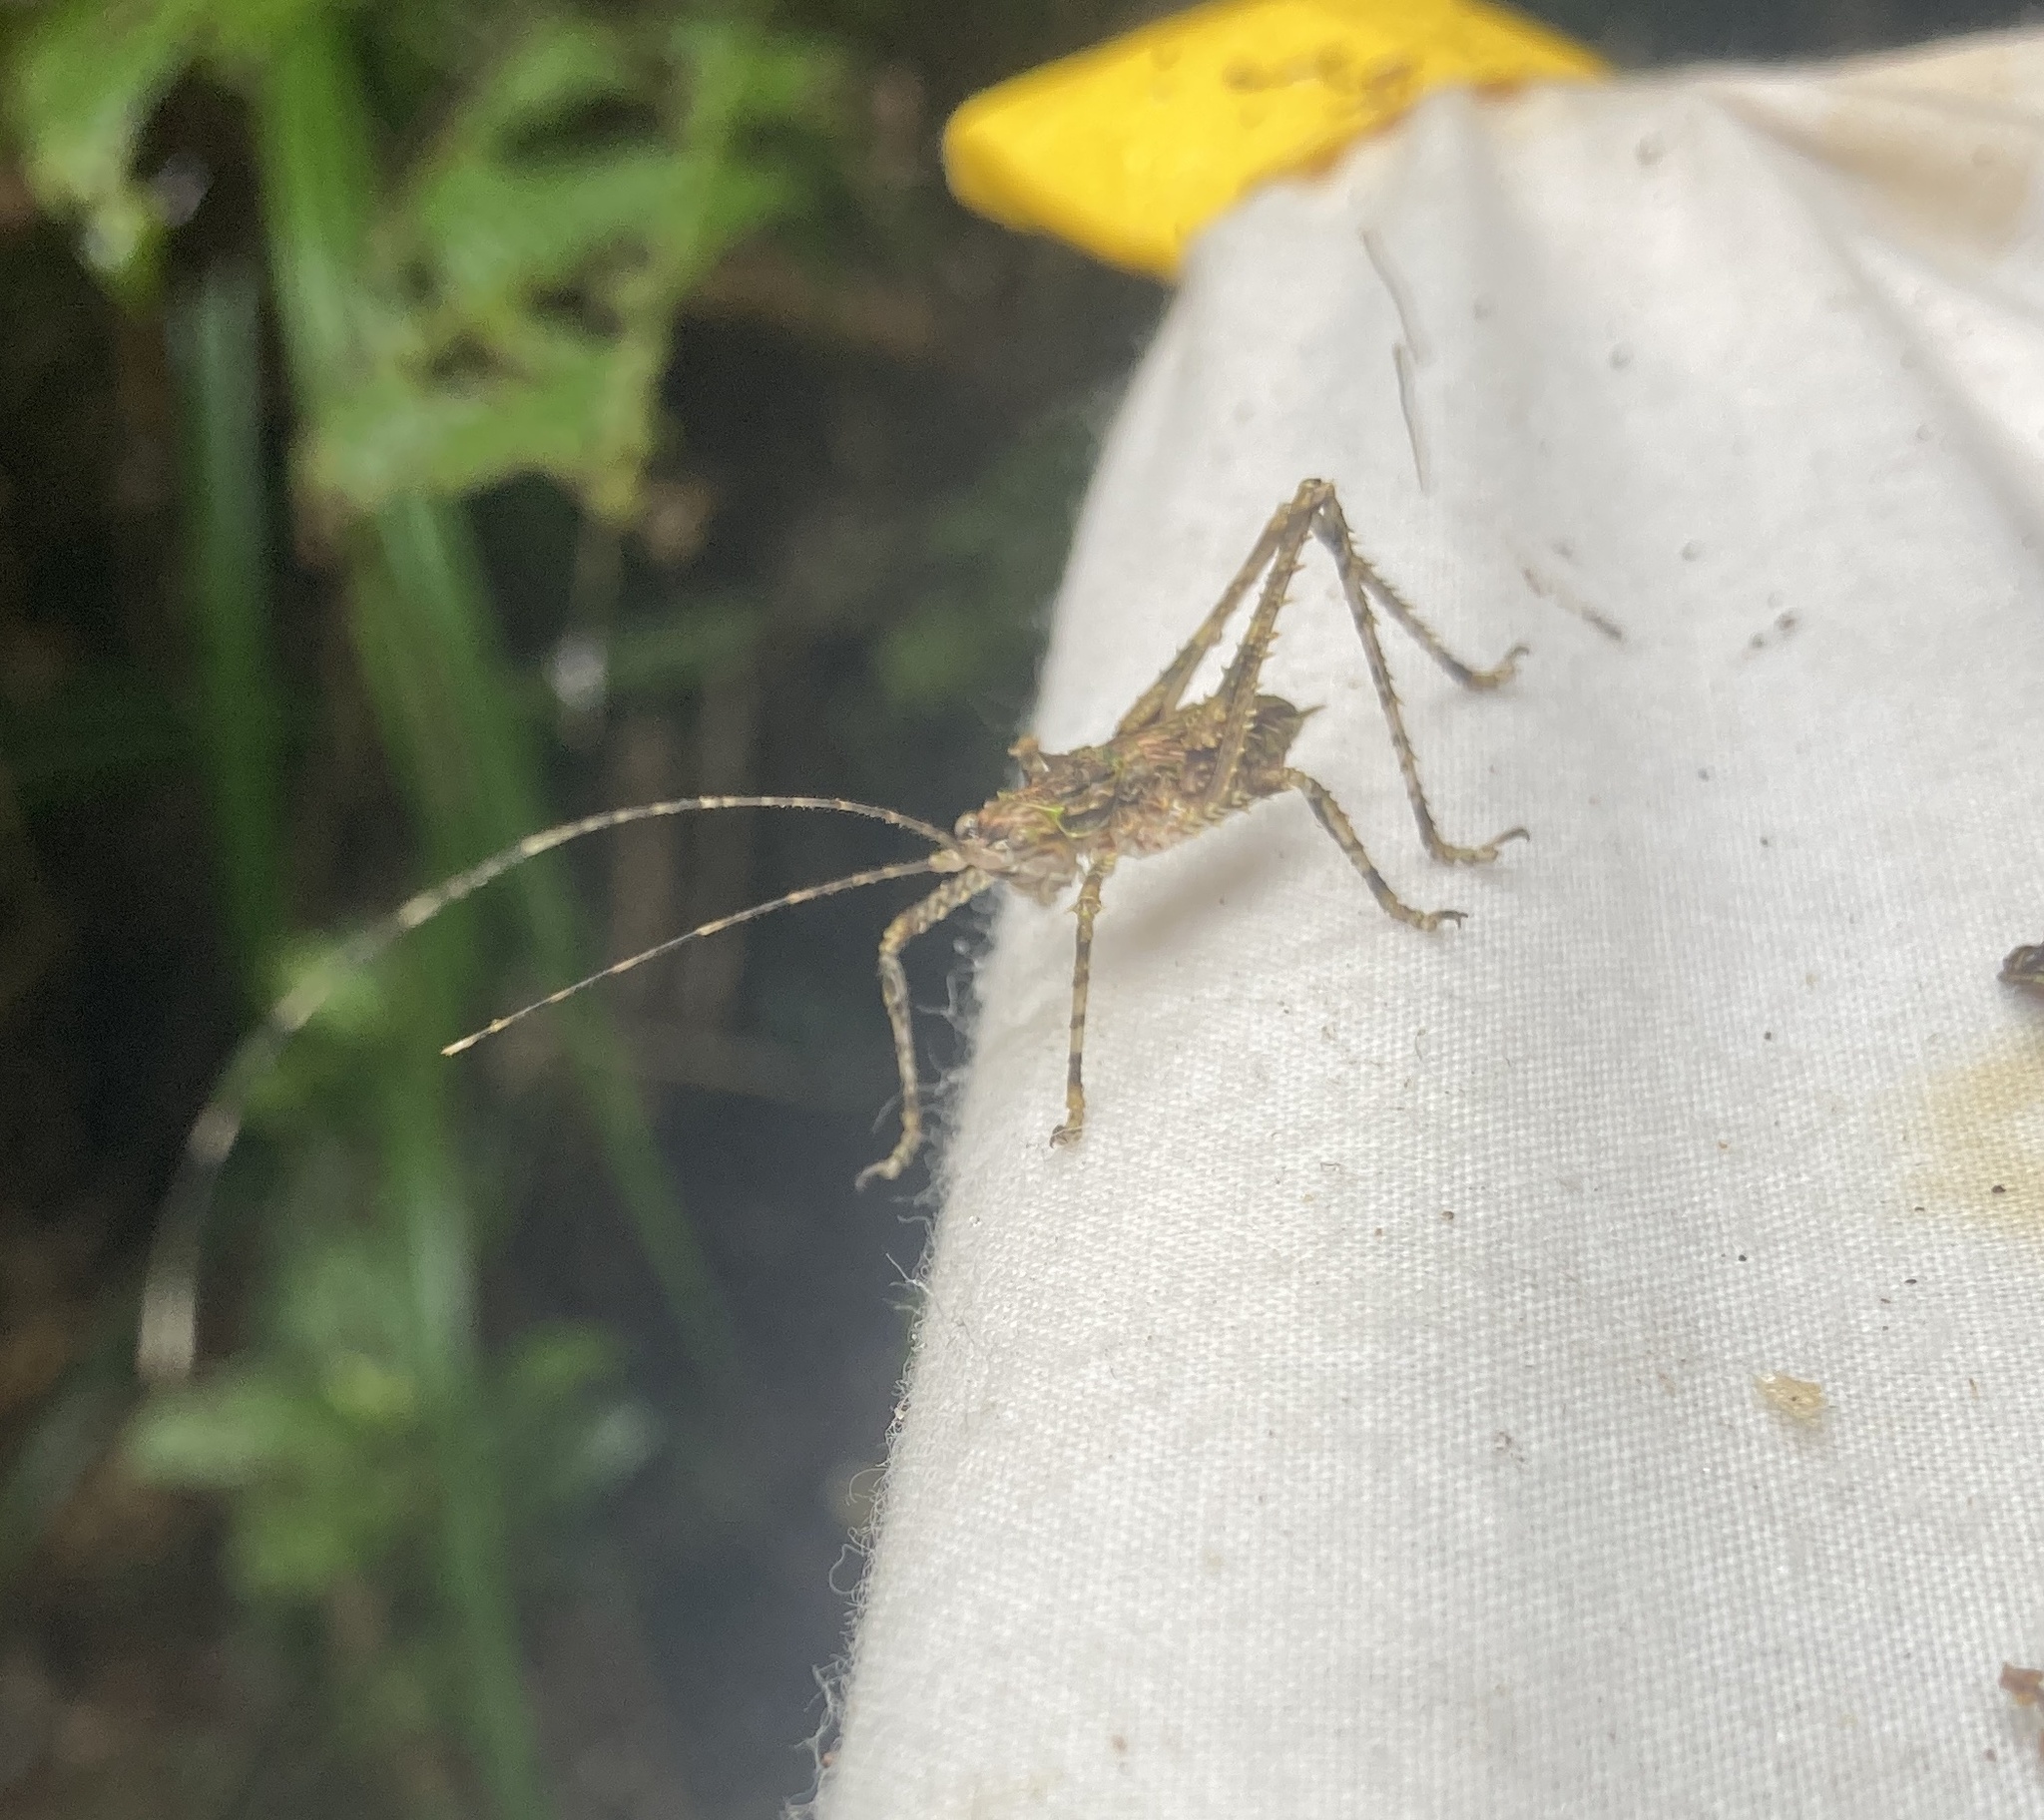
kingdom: Animalia
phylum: Arthropoda
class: Insecta
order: Orthoptera
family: Tettigoniidae
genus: Phricta
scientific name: Phricta spinosa
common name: Giant spiny forest katydid
